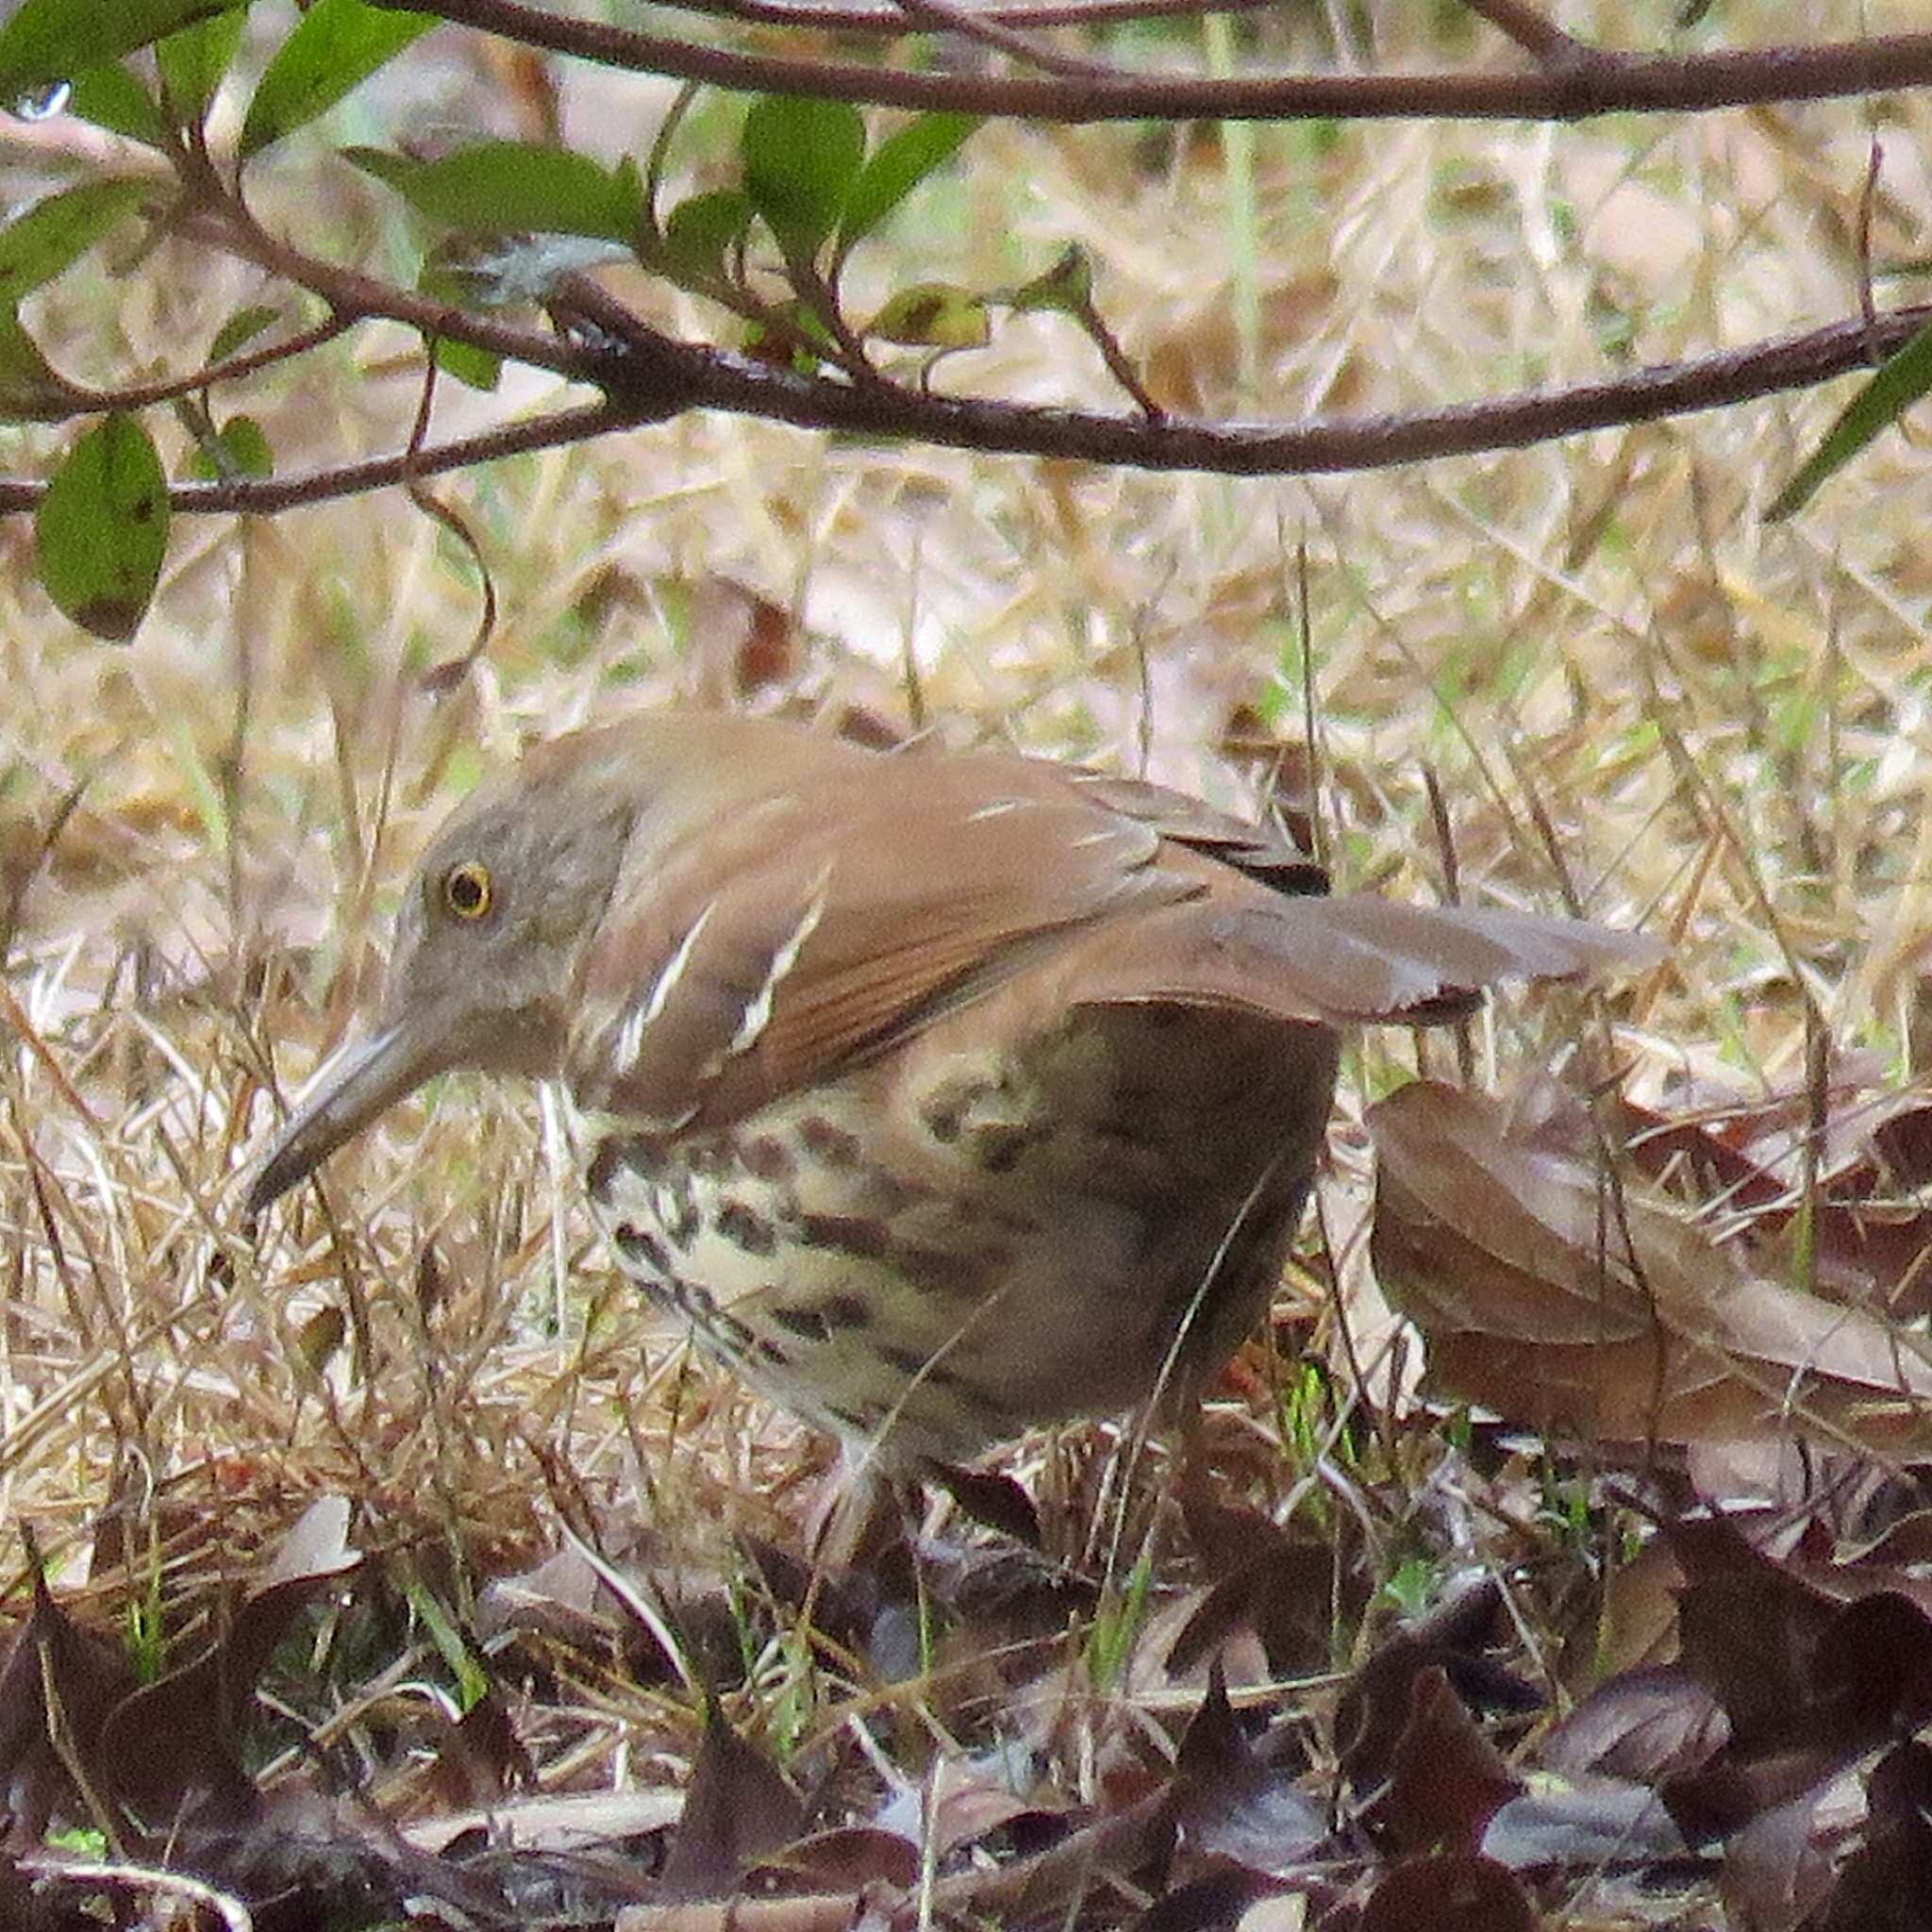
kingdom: Animalia
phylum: Chordata
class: Aves
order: Passeriformes
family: Mimidae
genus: Toxostoma
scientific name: Toxostoma rufum
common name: Brown thrasher
